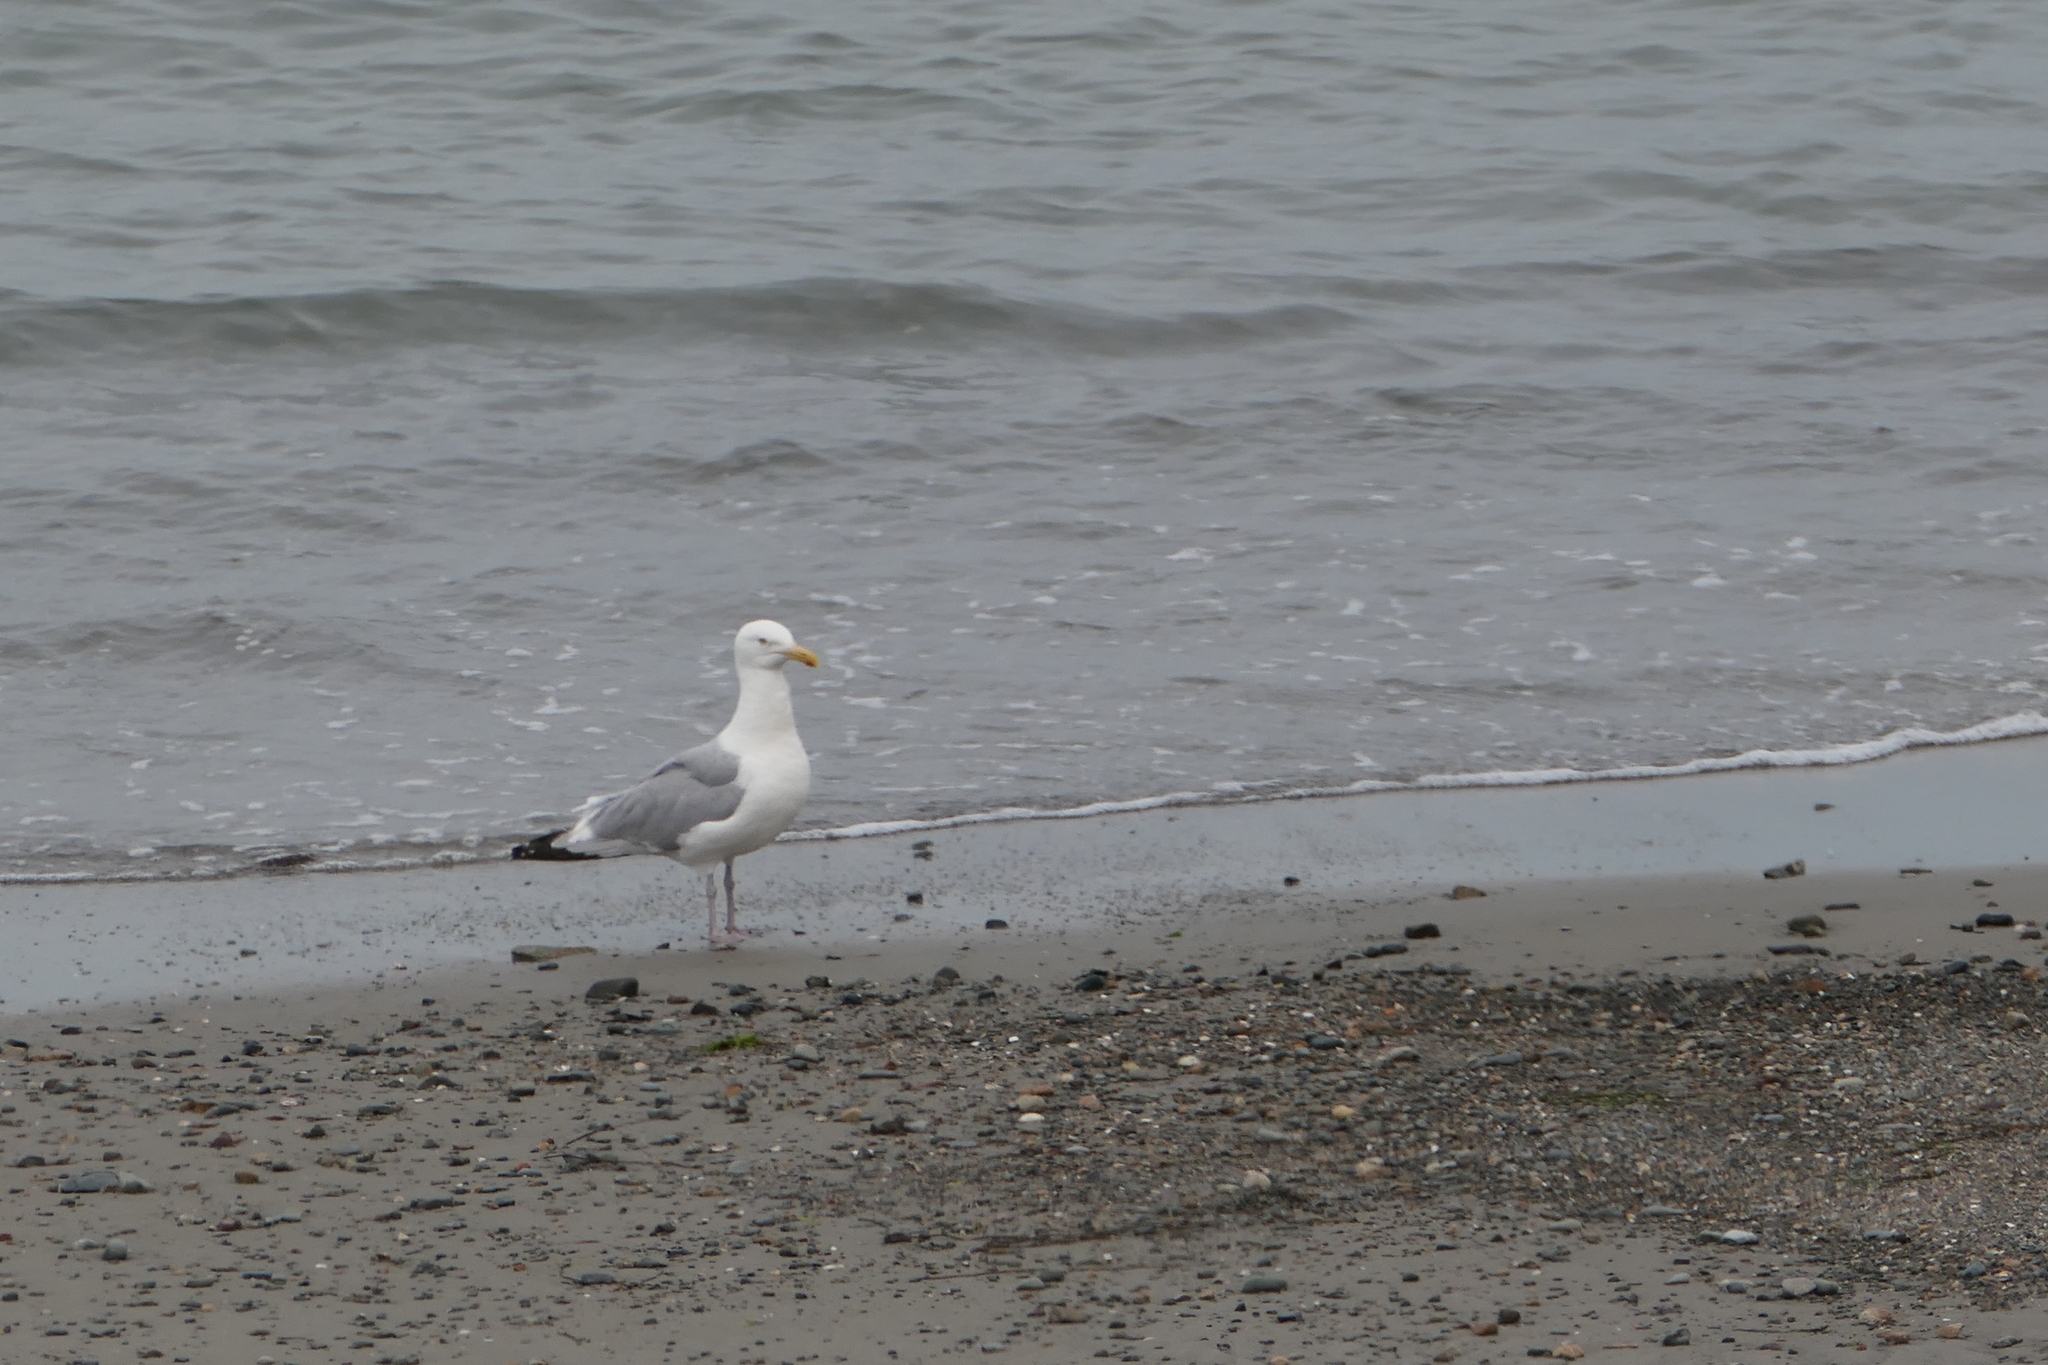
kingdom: Animalia
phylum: Chordata
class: Aves
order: Charadriiformes
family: Laridae
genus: Larus
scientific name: Larus argentatus
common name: Herring gull
